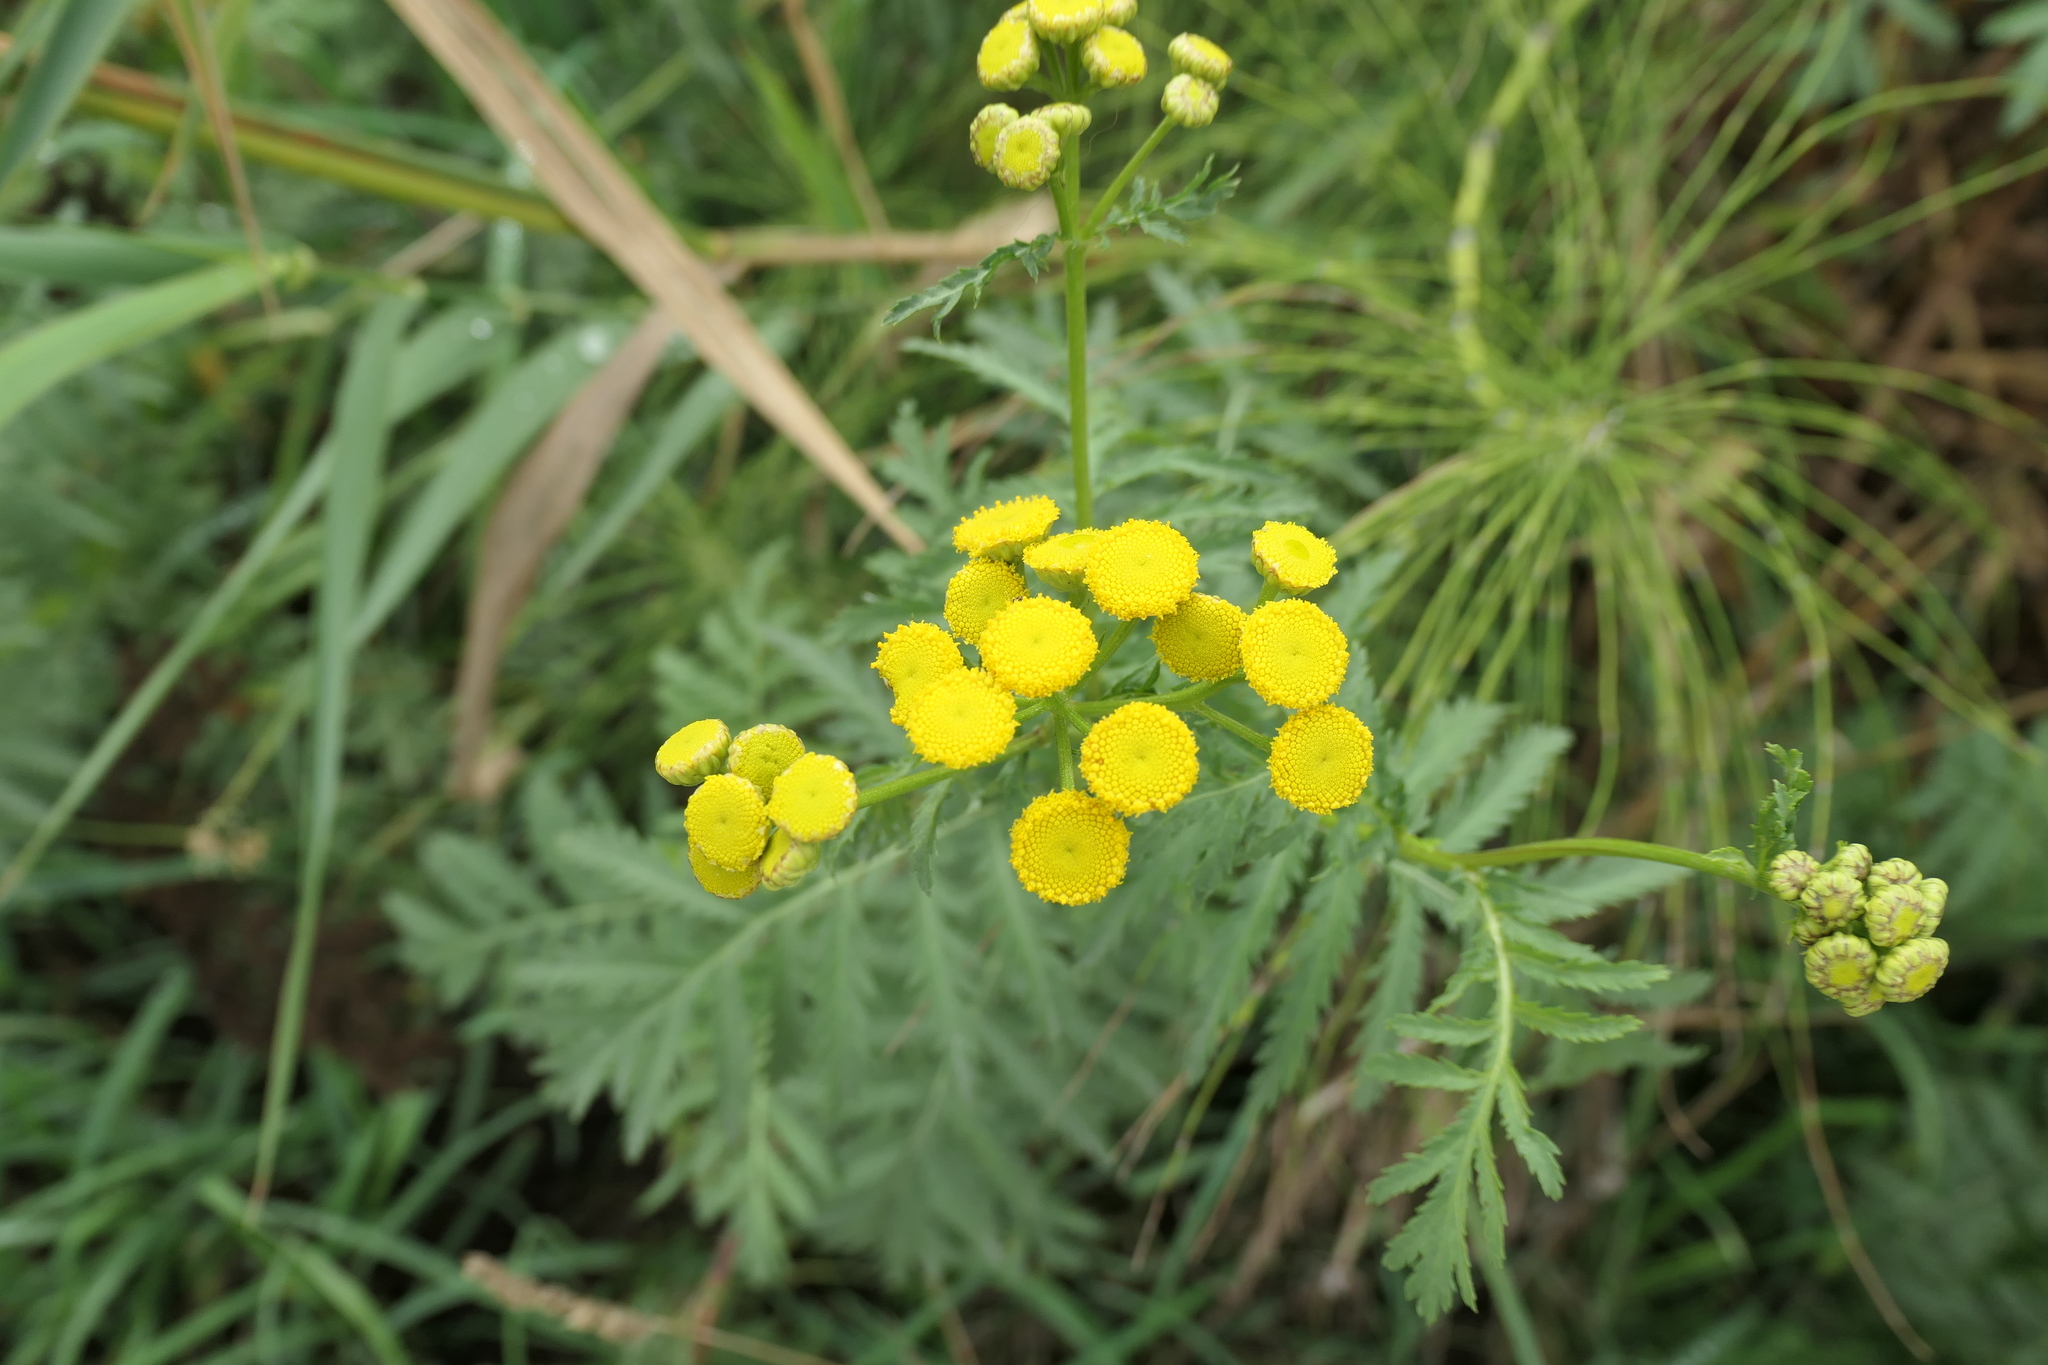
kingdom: Plantae
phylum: Tracheophyta
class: Magnoliopsida
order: Asterales
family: Asteraceae
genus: Tanacetum
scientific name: Tanacetum vulgare
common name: Common tansy
